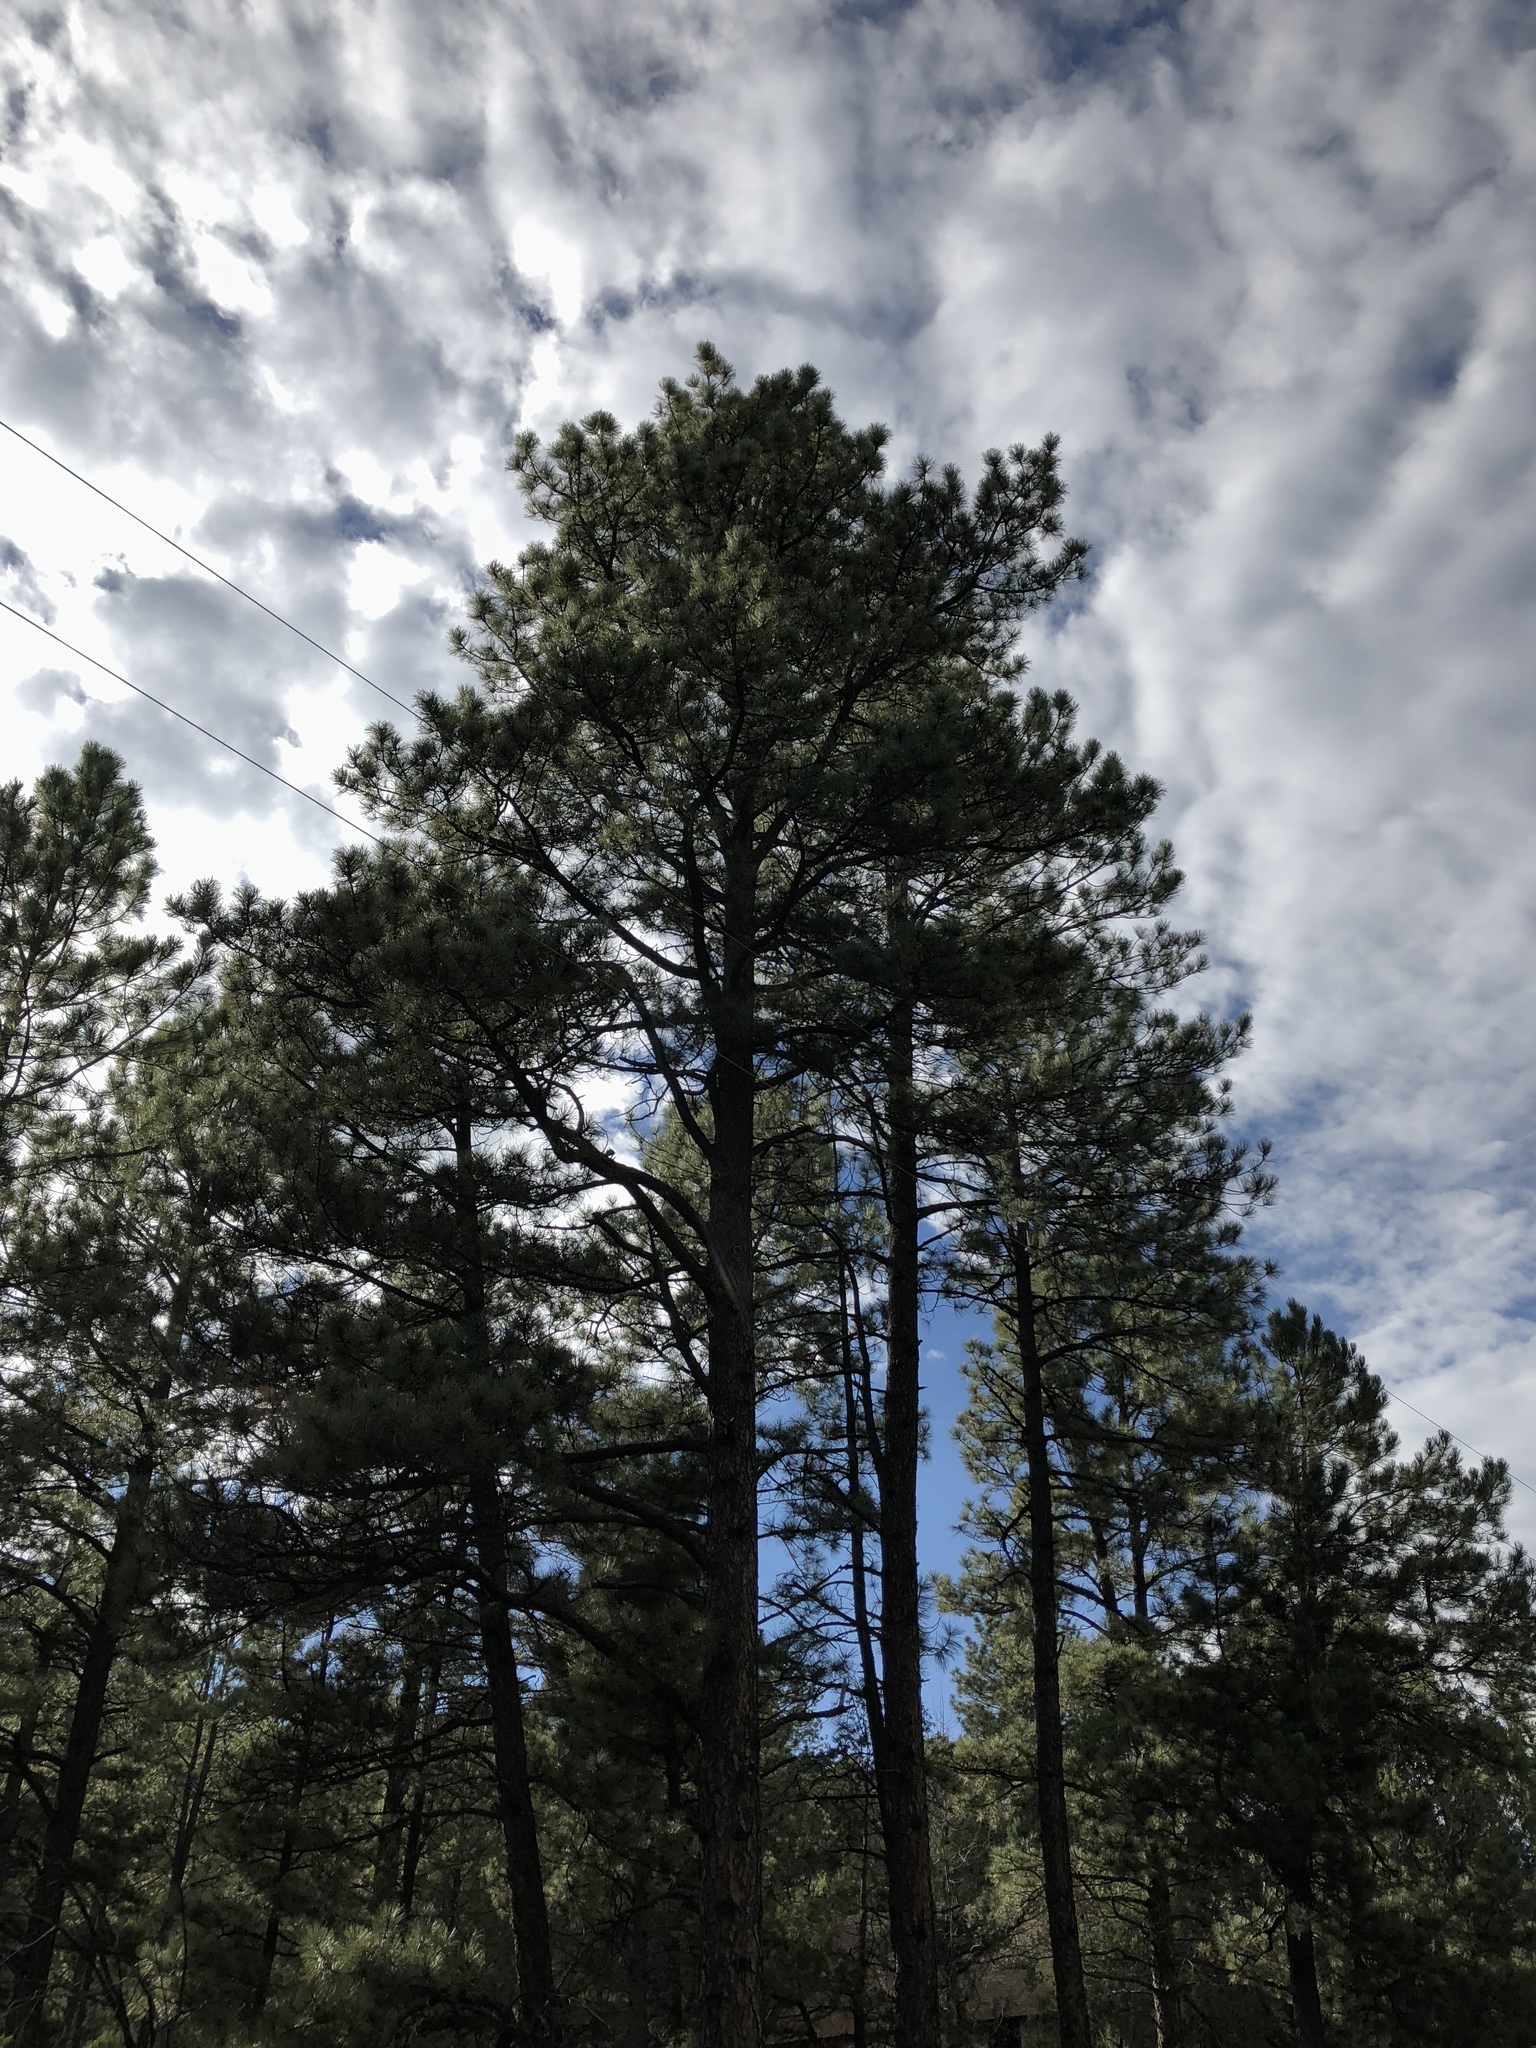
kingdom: Plantae
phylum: Tracheophyta
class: Pinopsida
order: Pinales
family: Pinaceae
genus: Pinus
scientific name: Pinus ponderosa
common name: Western yellow-pine
